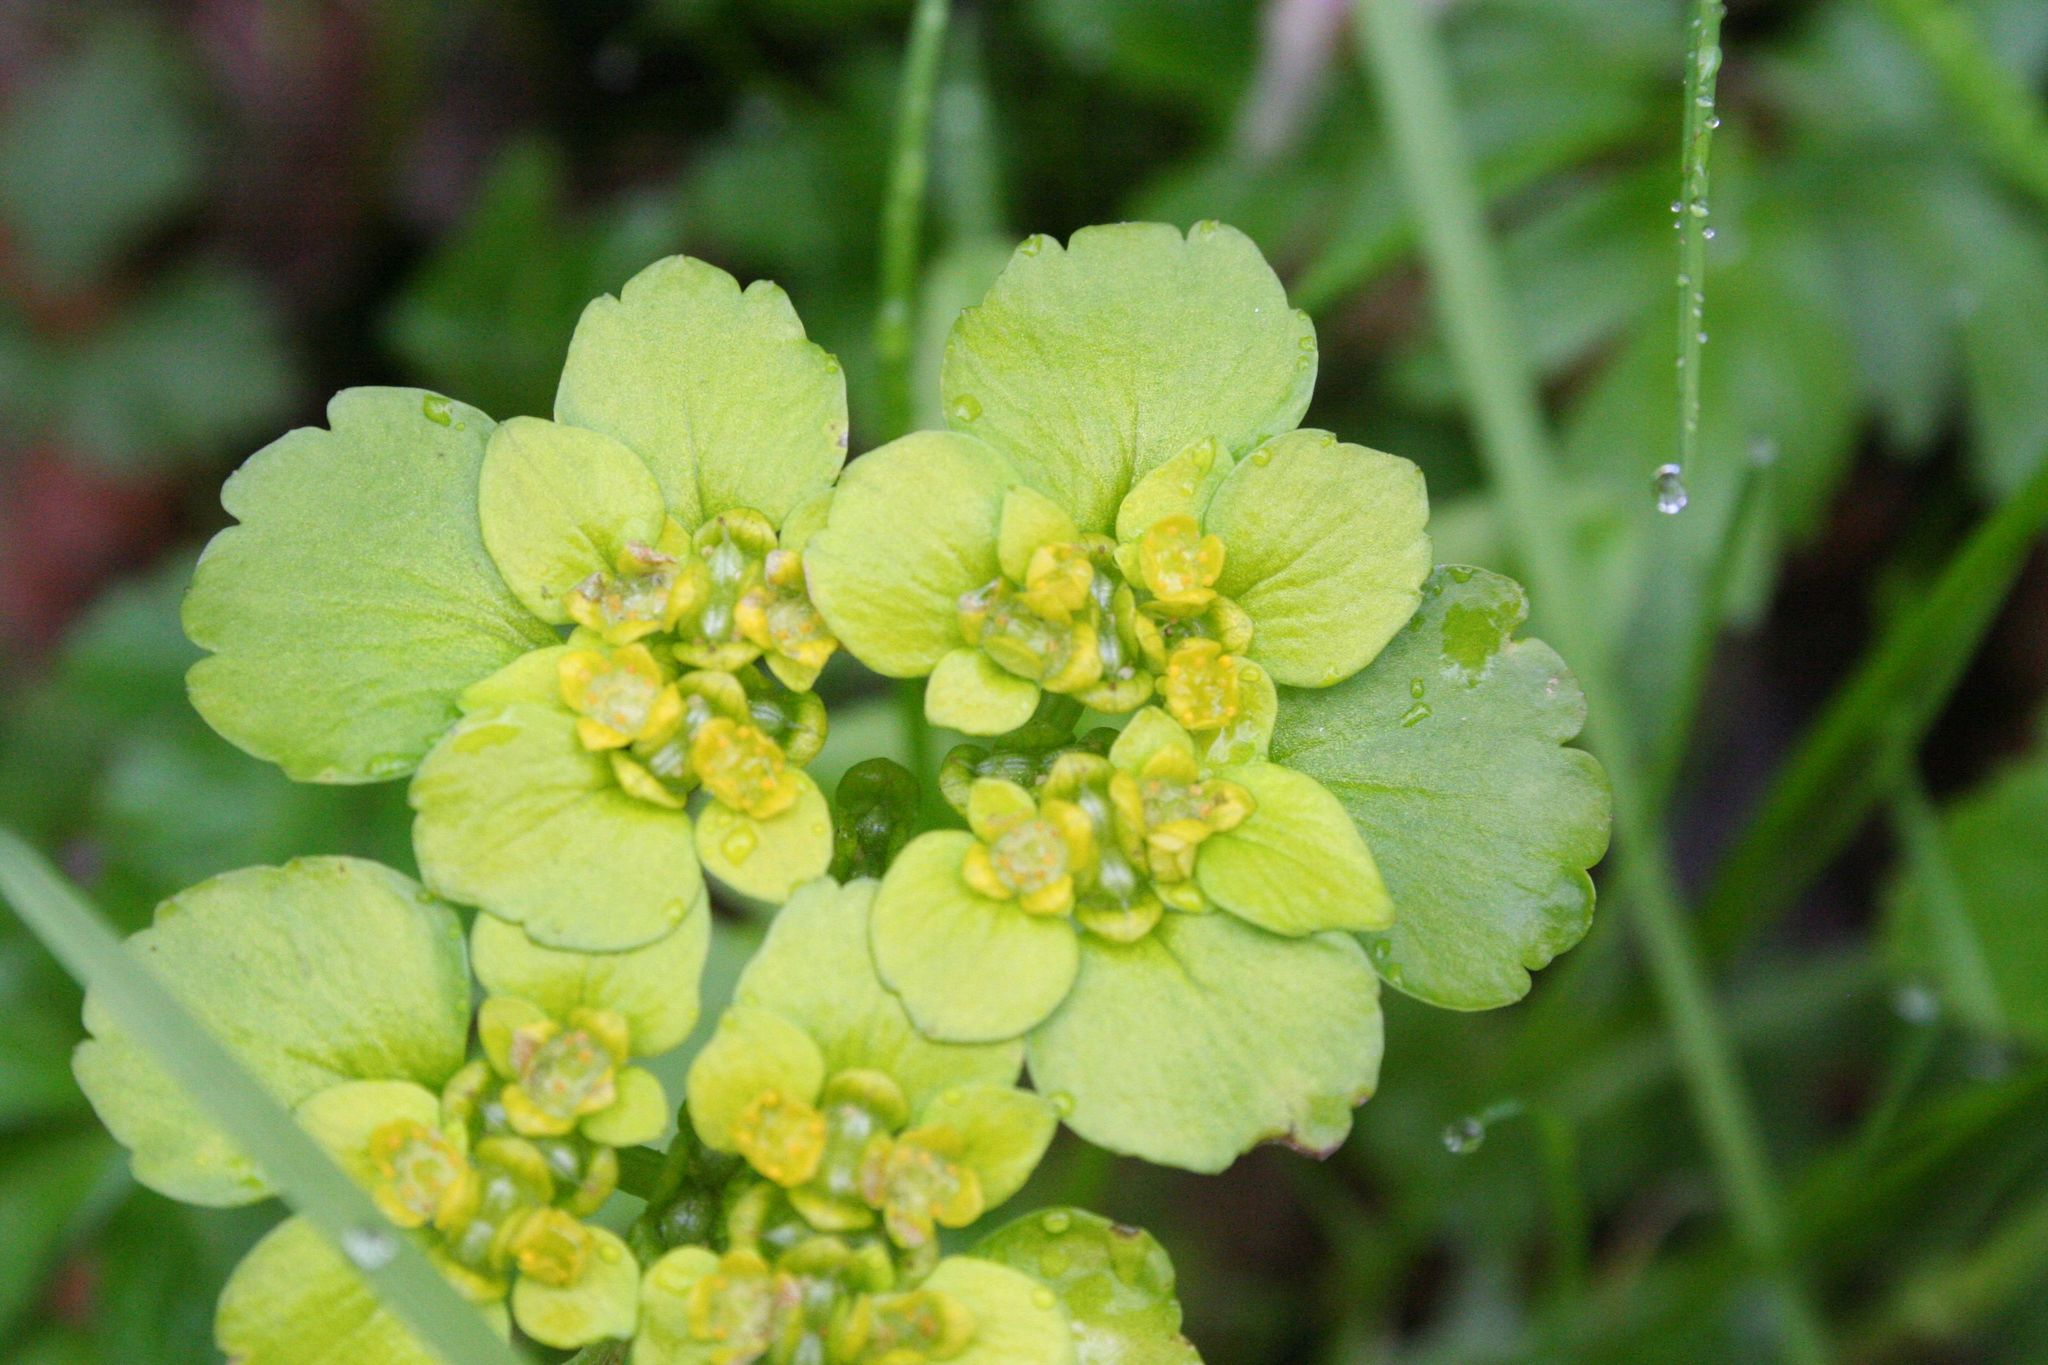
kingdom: Plantae
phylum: Tracheophyta
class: Magnoliopsida
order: Saxifragales
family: Saxifragaceae
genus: Chrysosplenium
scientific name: Chrysosplenium alternifolium
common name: Alternate-leaved golden-saxifrage
